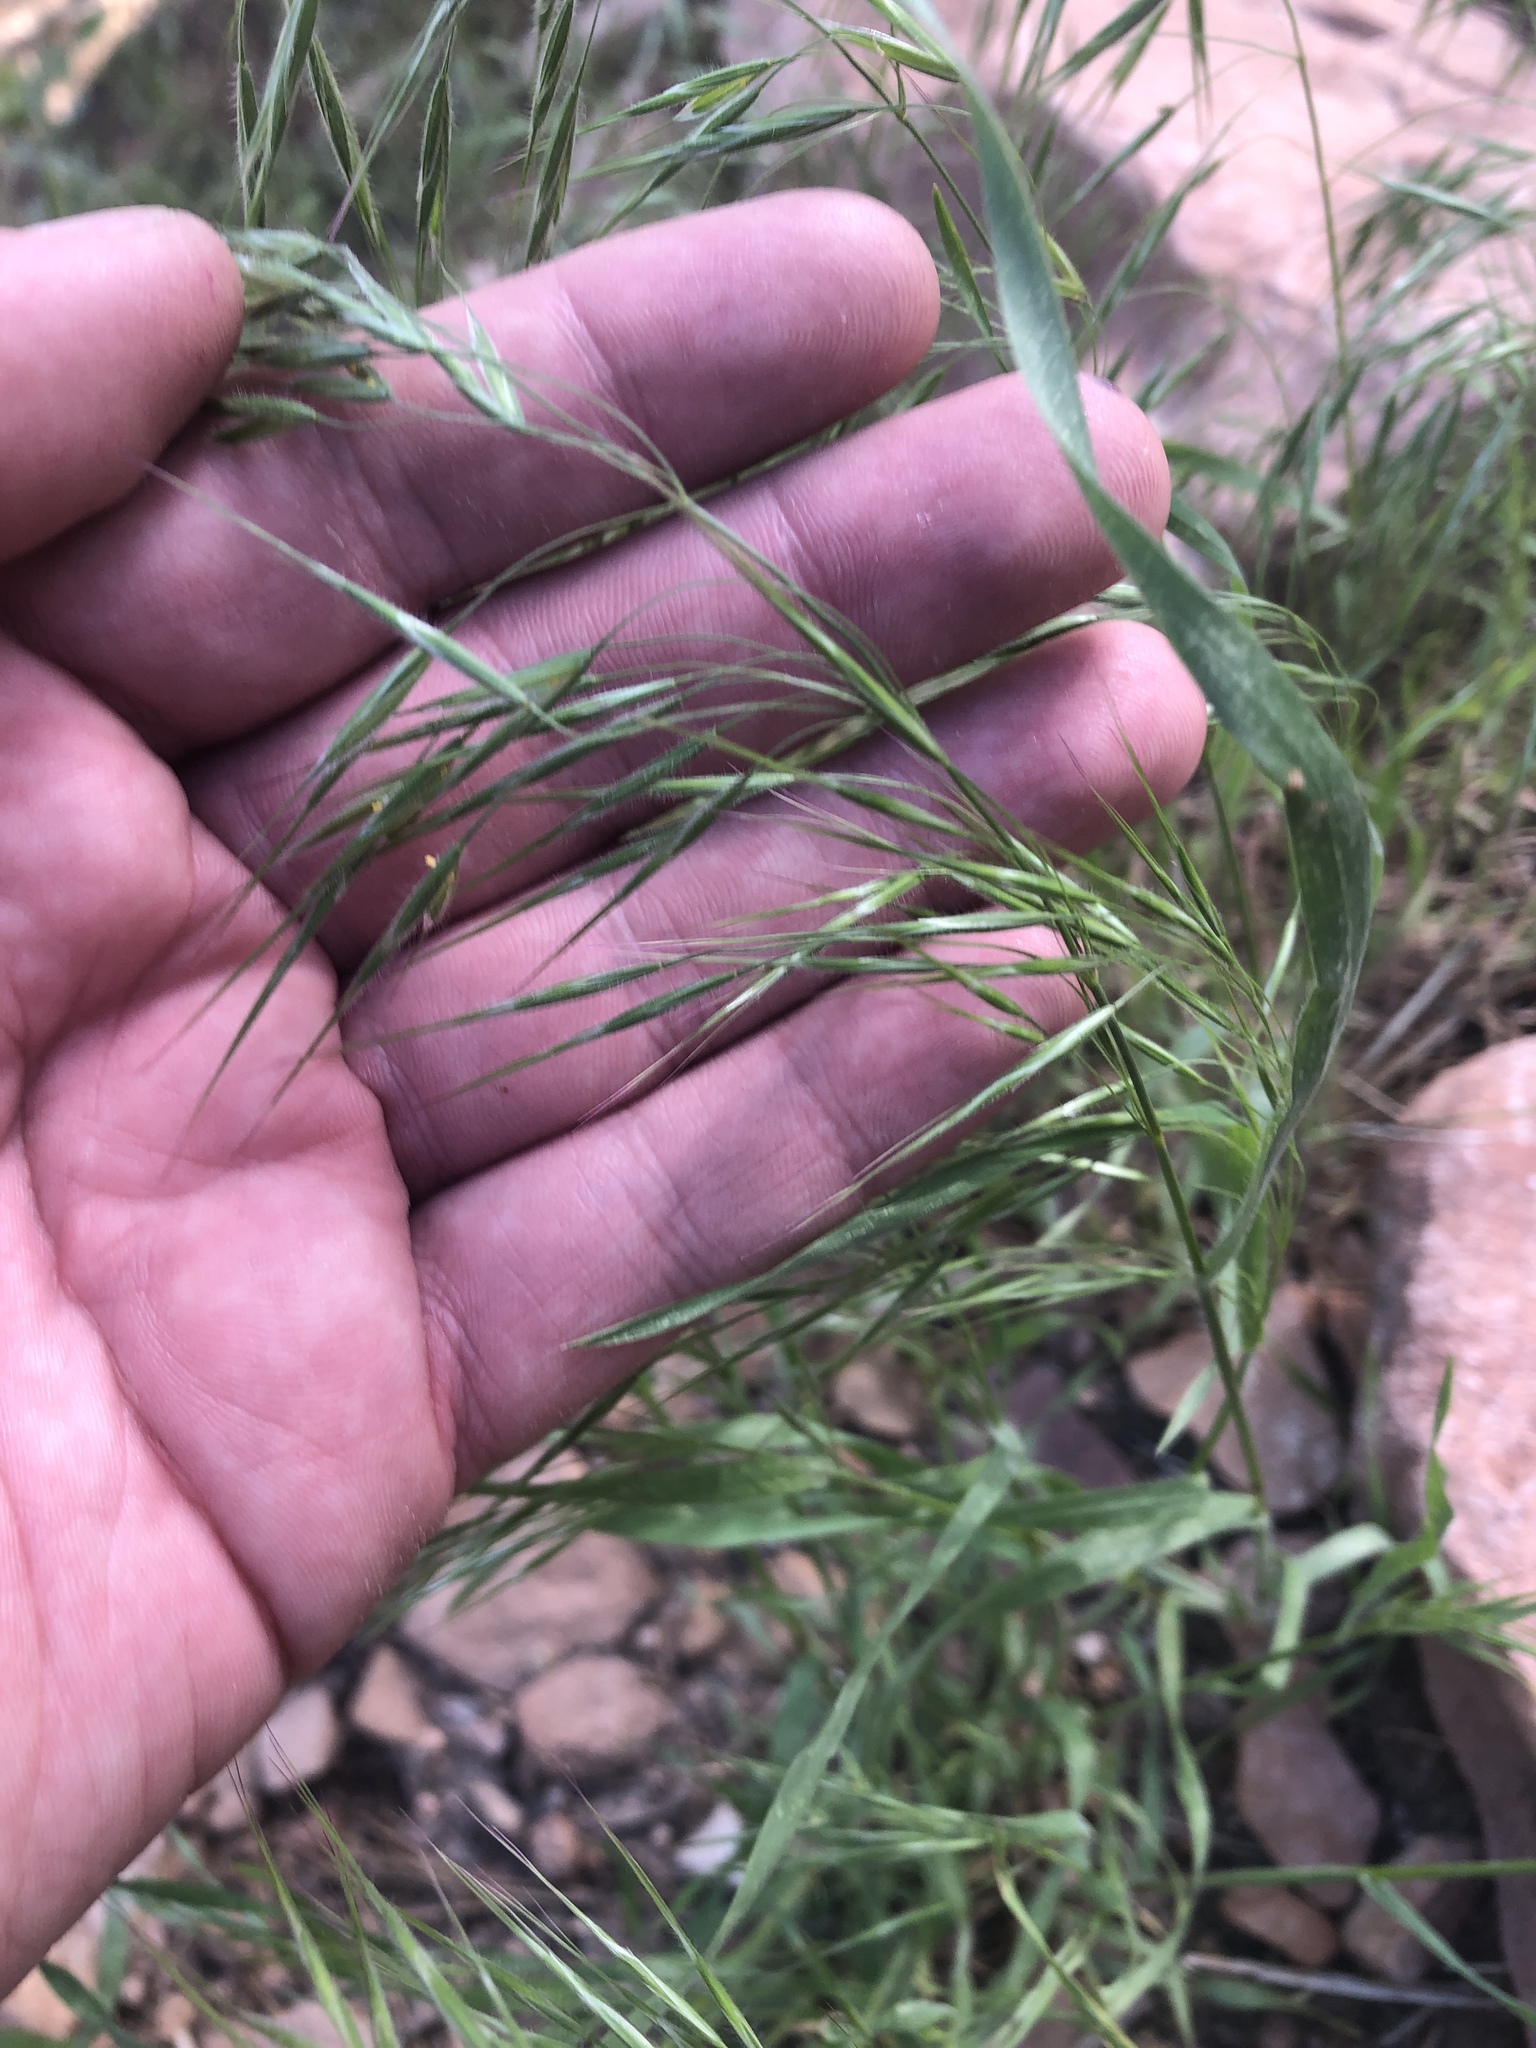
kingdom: Plantae
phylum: Tracheophyta
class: Liliopsida
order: Poales
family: Poaceae
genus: Bromus
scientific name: Bromus tectorum
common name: Cheatgrass
